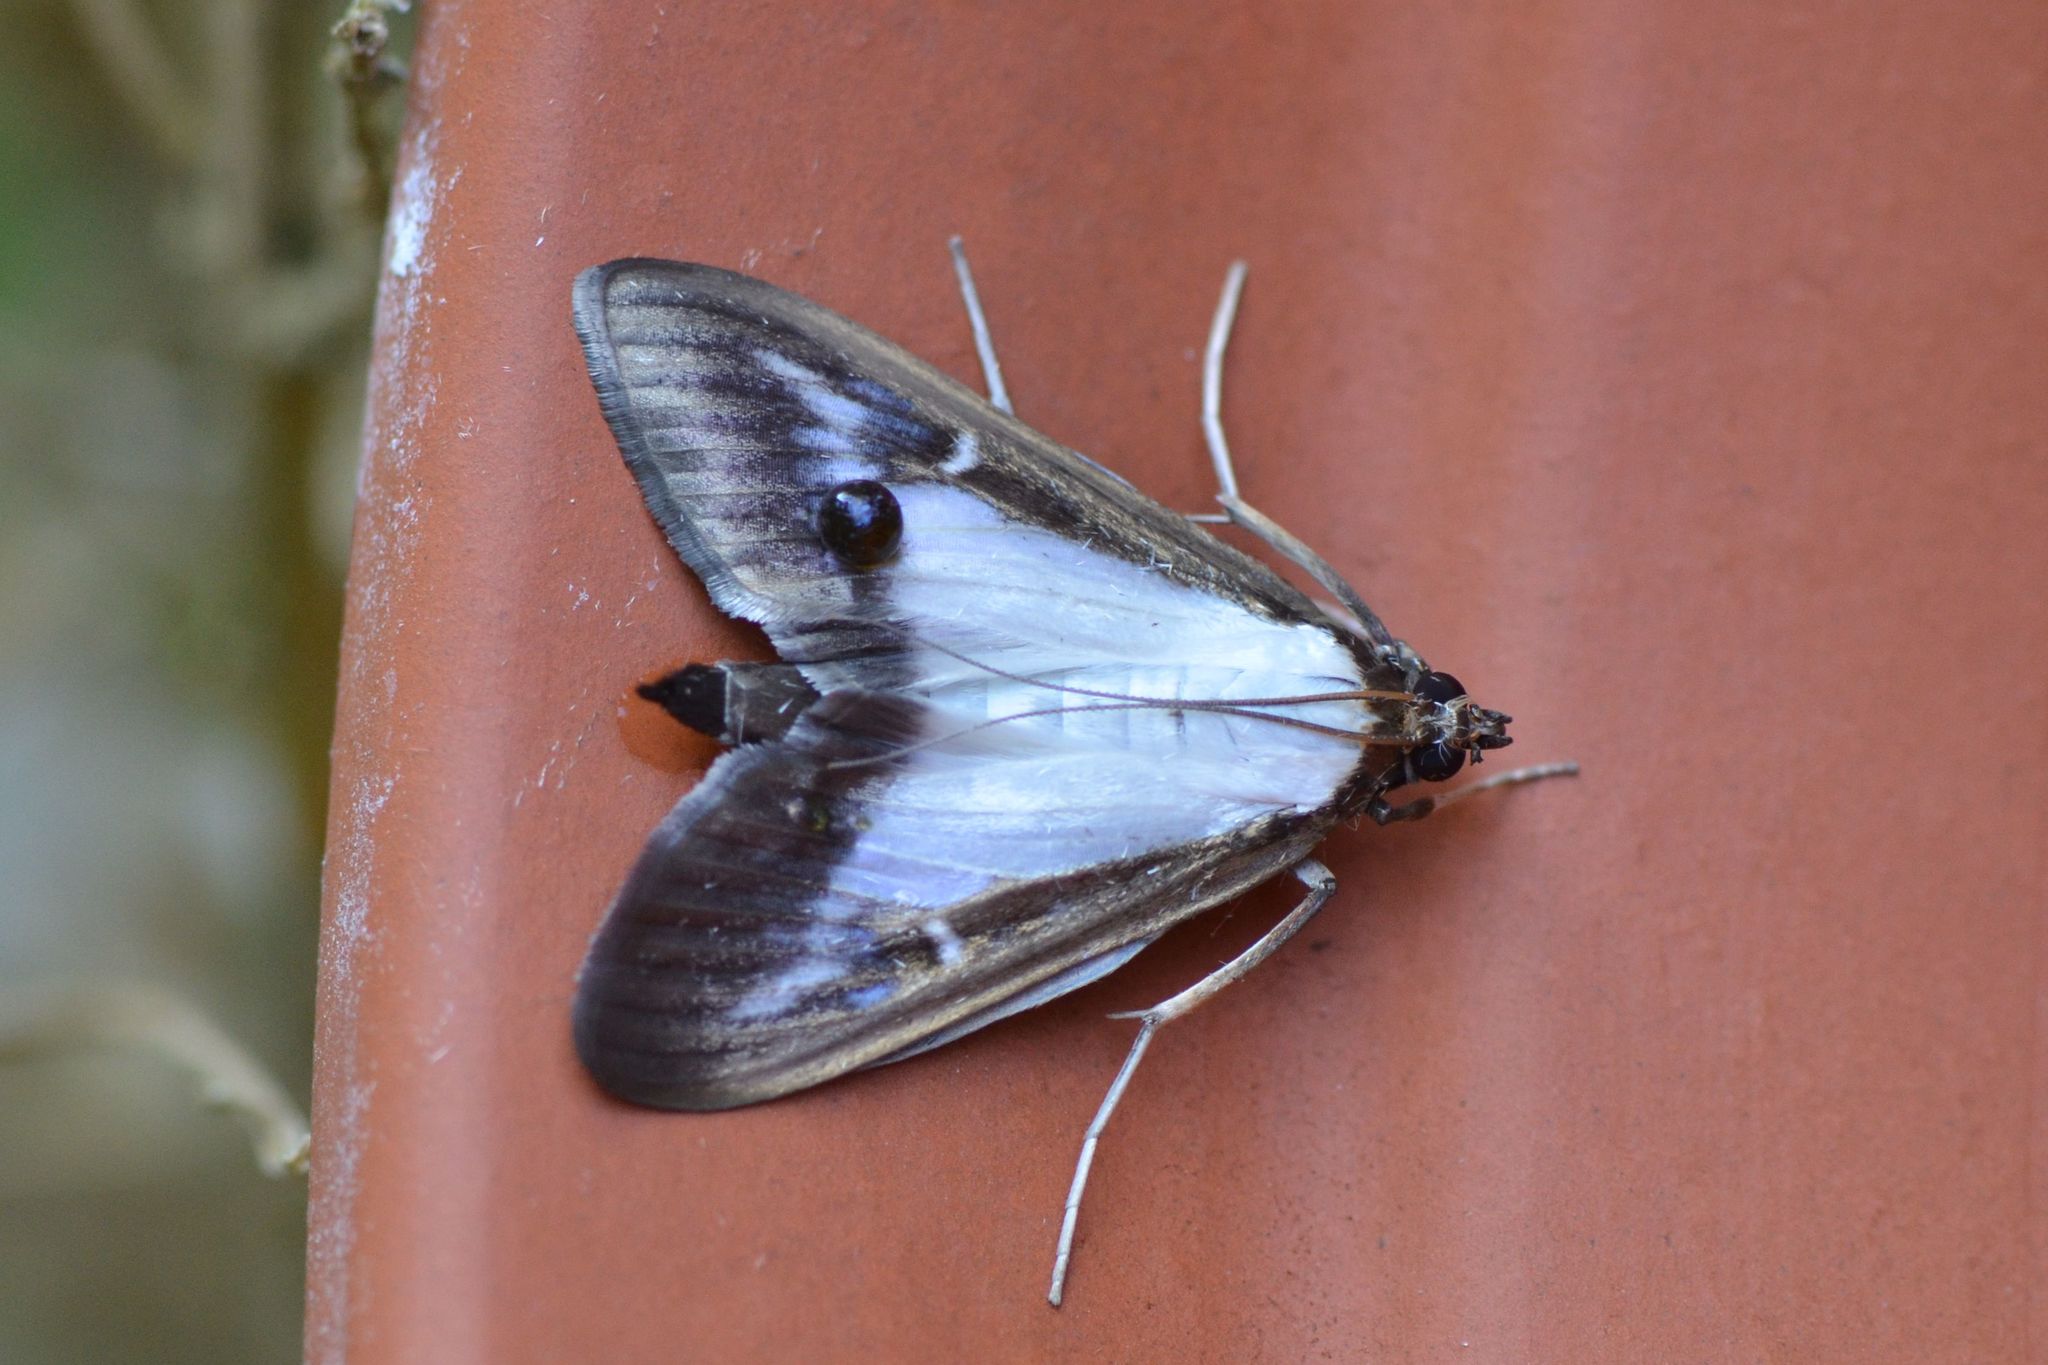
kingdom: Animalia
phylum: Arthropoda
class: Insecta
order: Lepidoptera
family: Crambidae
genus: Cydalima
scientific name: Cydalima perspectalis
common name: Box tree moth
